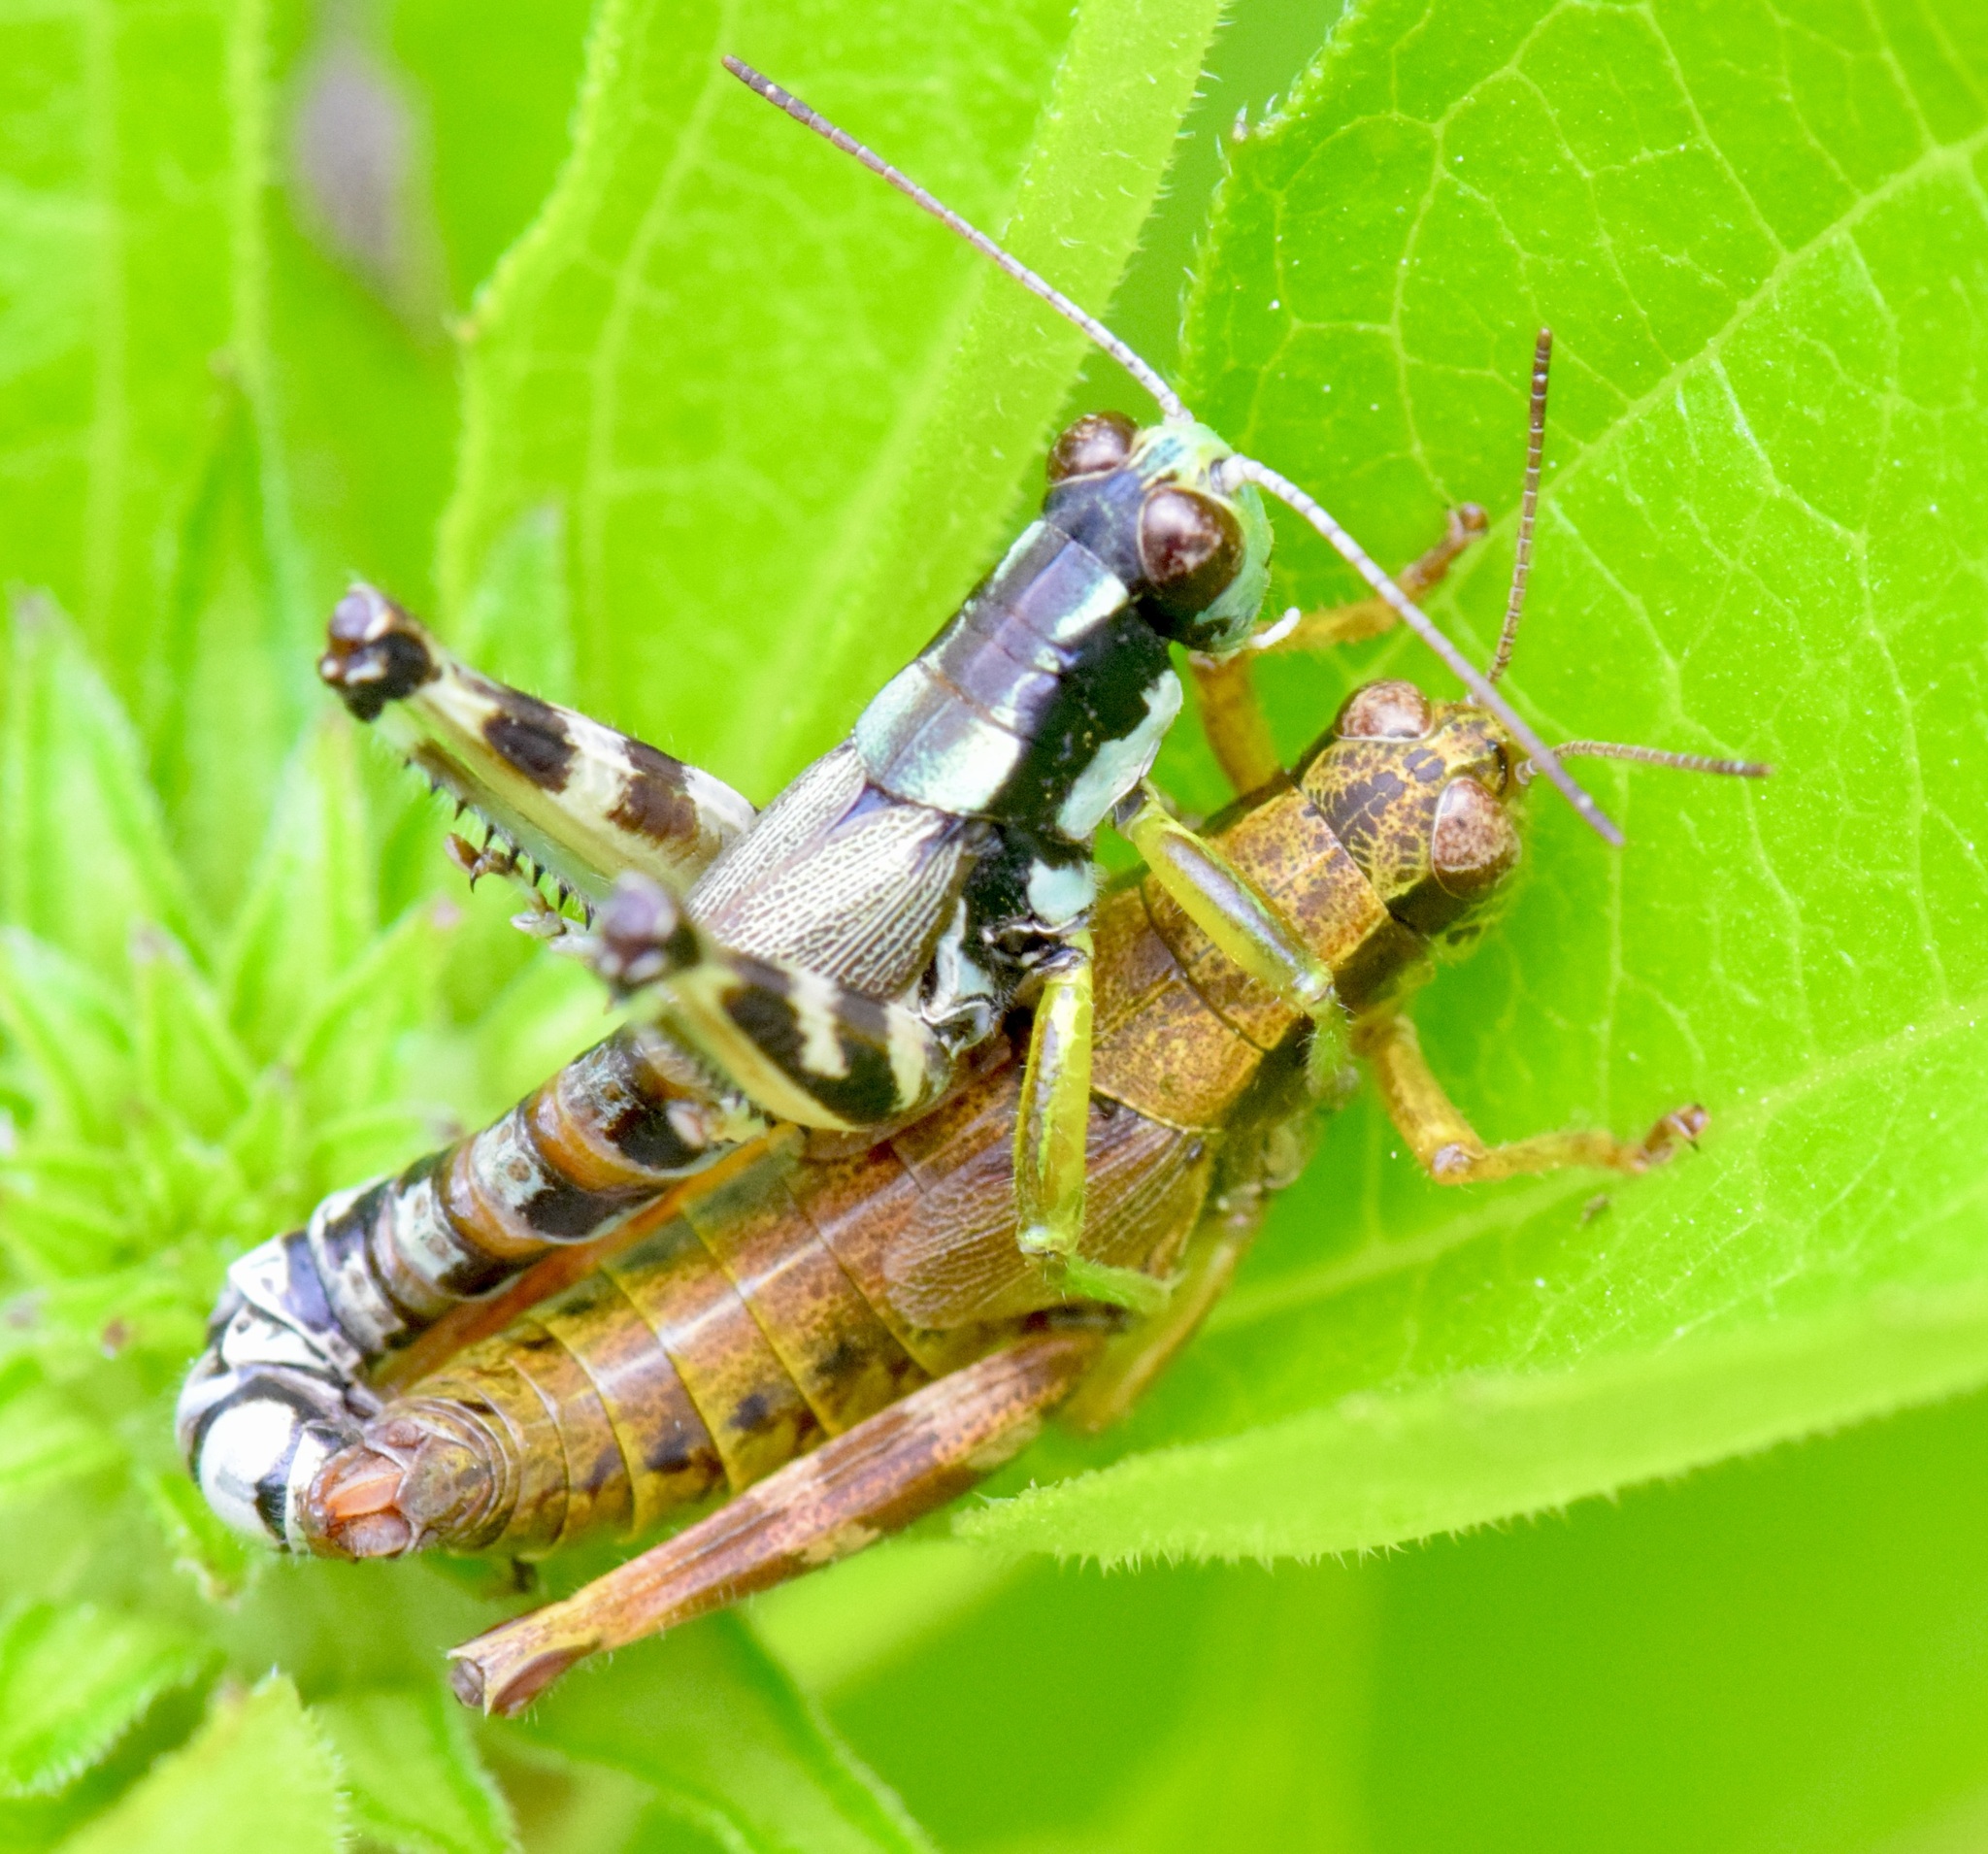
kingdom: Animalia
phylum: Arthropoda
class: Insecta
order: Orthoptera
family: Acrididae
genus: Melanoplus
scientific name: Melanoplus viridipes
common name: Green-legged locust
